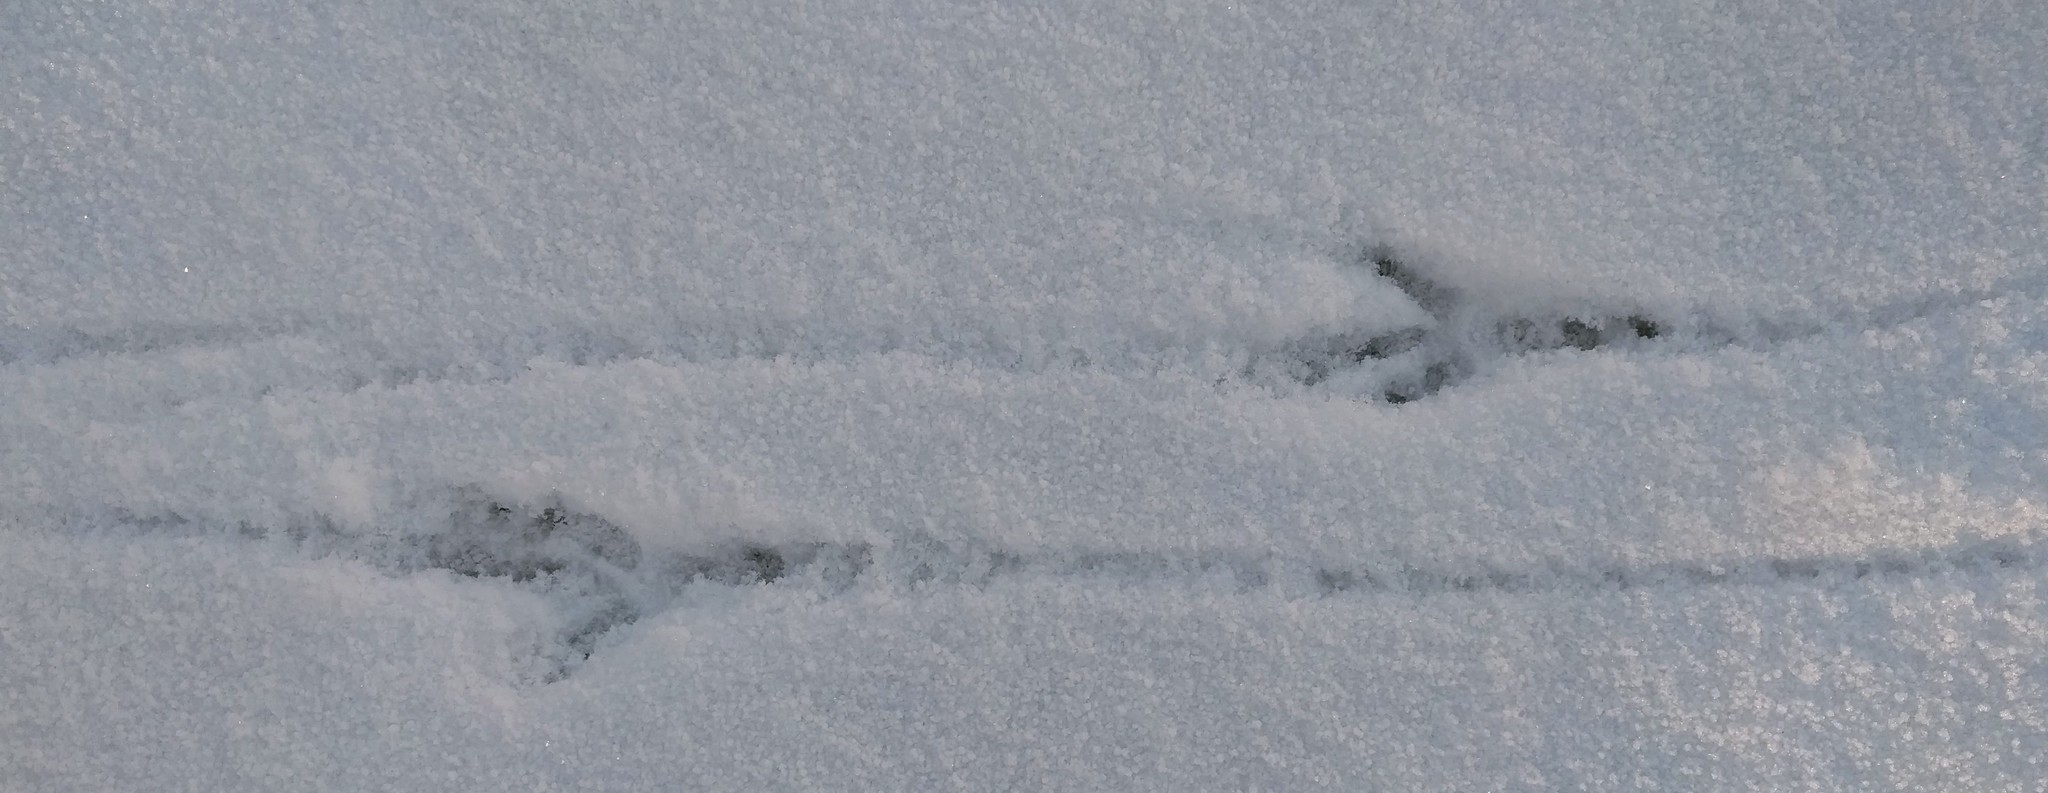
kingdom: Animalia
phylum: Chordata
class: Aves
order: Passeriformes
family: Corvidae
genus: Corvus
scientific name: Corvus brachyrhynchos
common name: American crow
